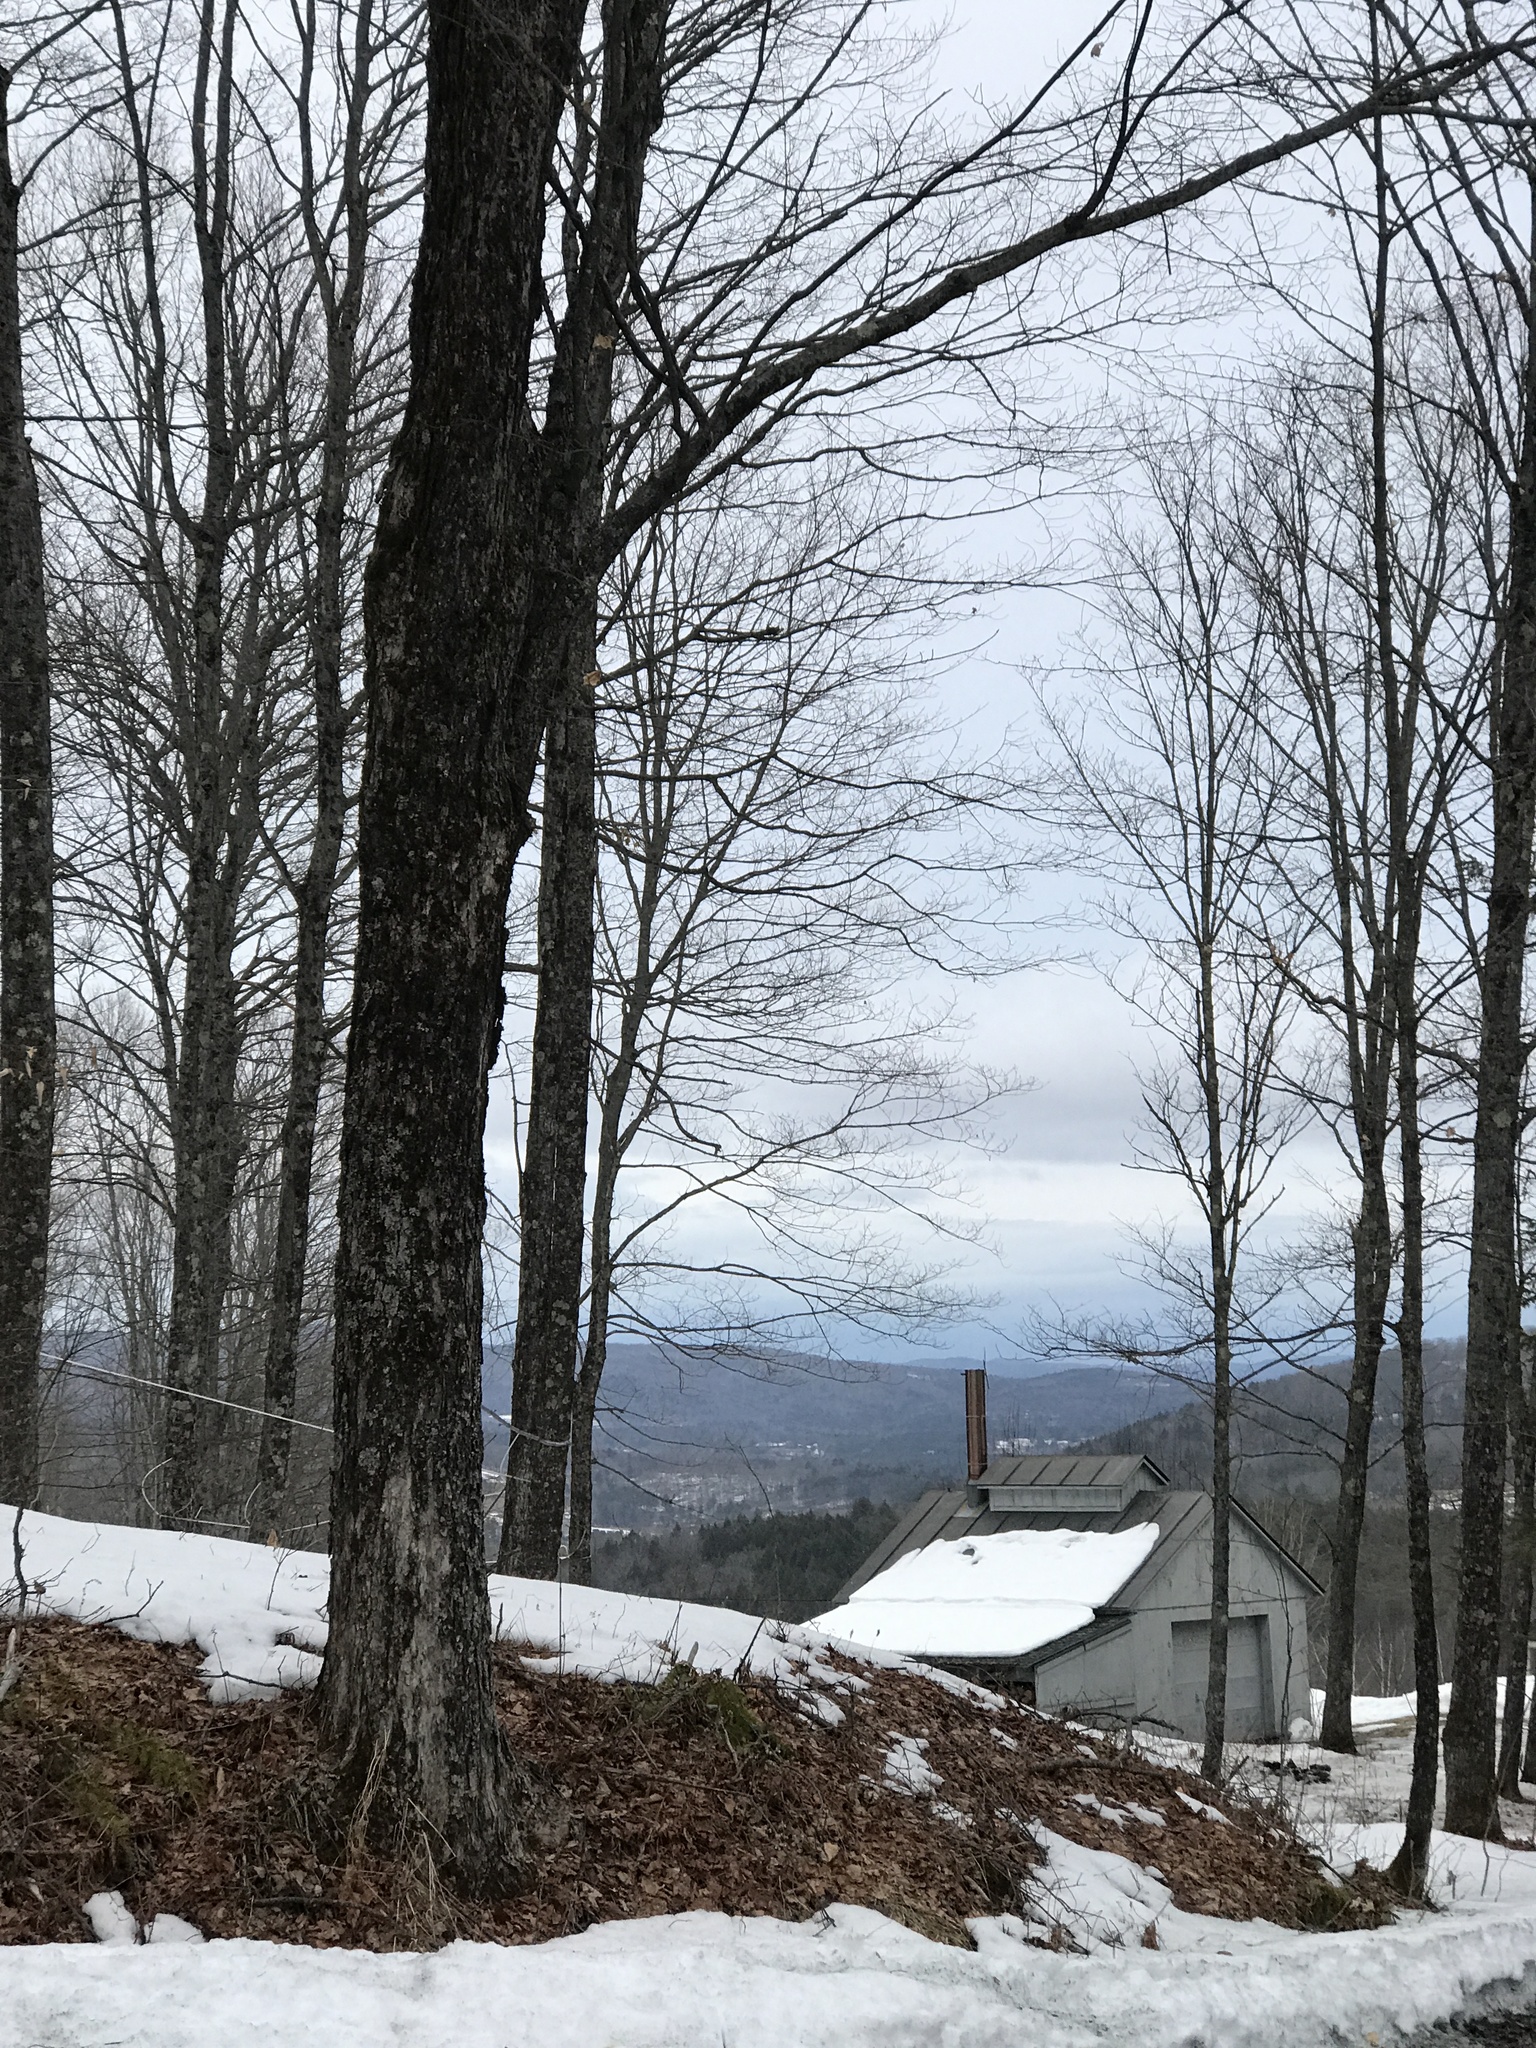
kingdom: Plantae
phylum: Tracheophyta
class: Magnoliopsida
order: Sapindales
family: Sapindaceae
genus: Acer
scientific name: Acer saccharum
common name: Sugar maple
